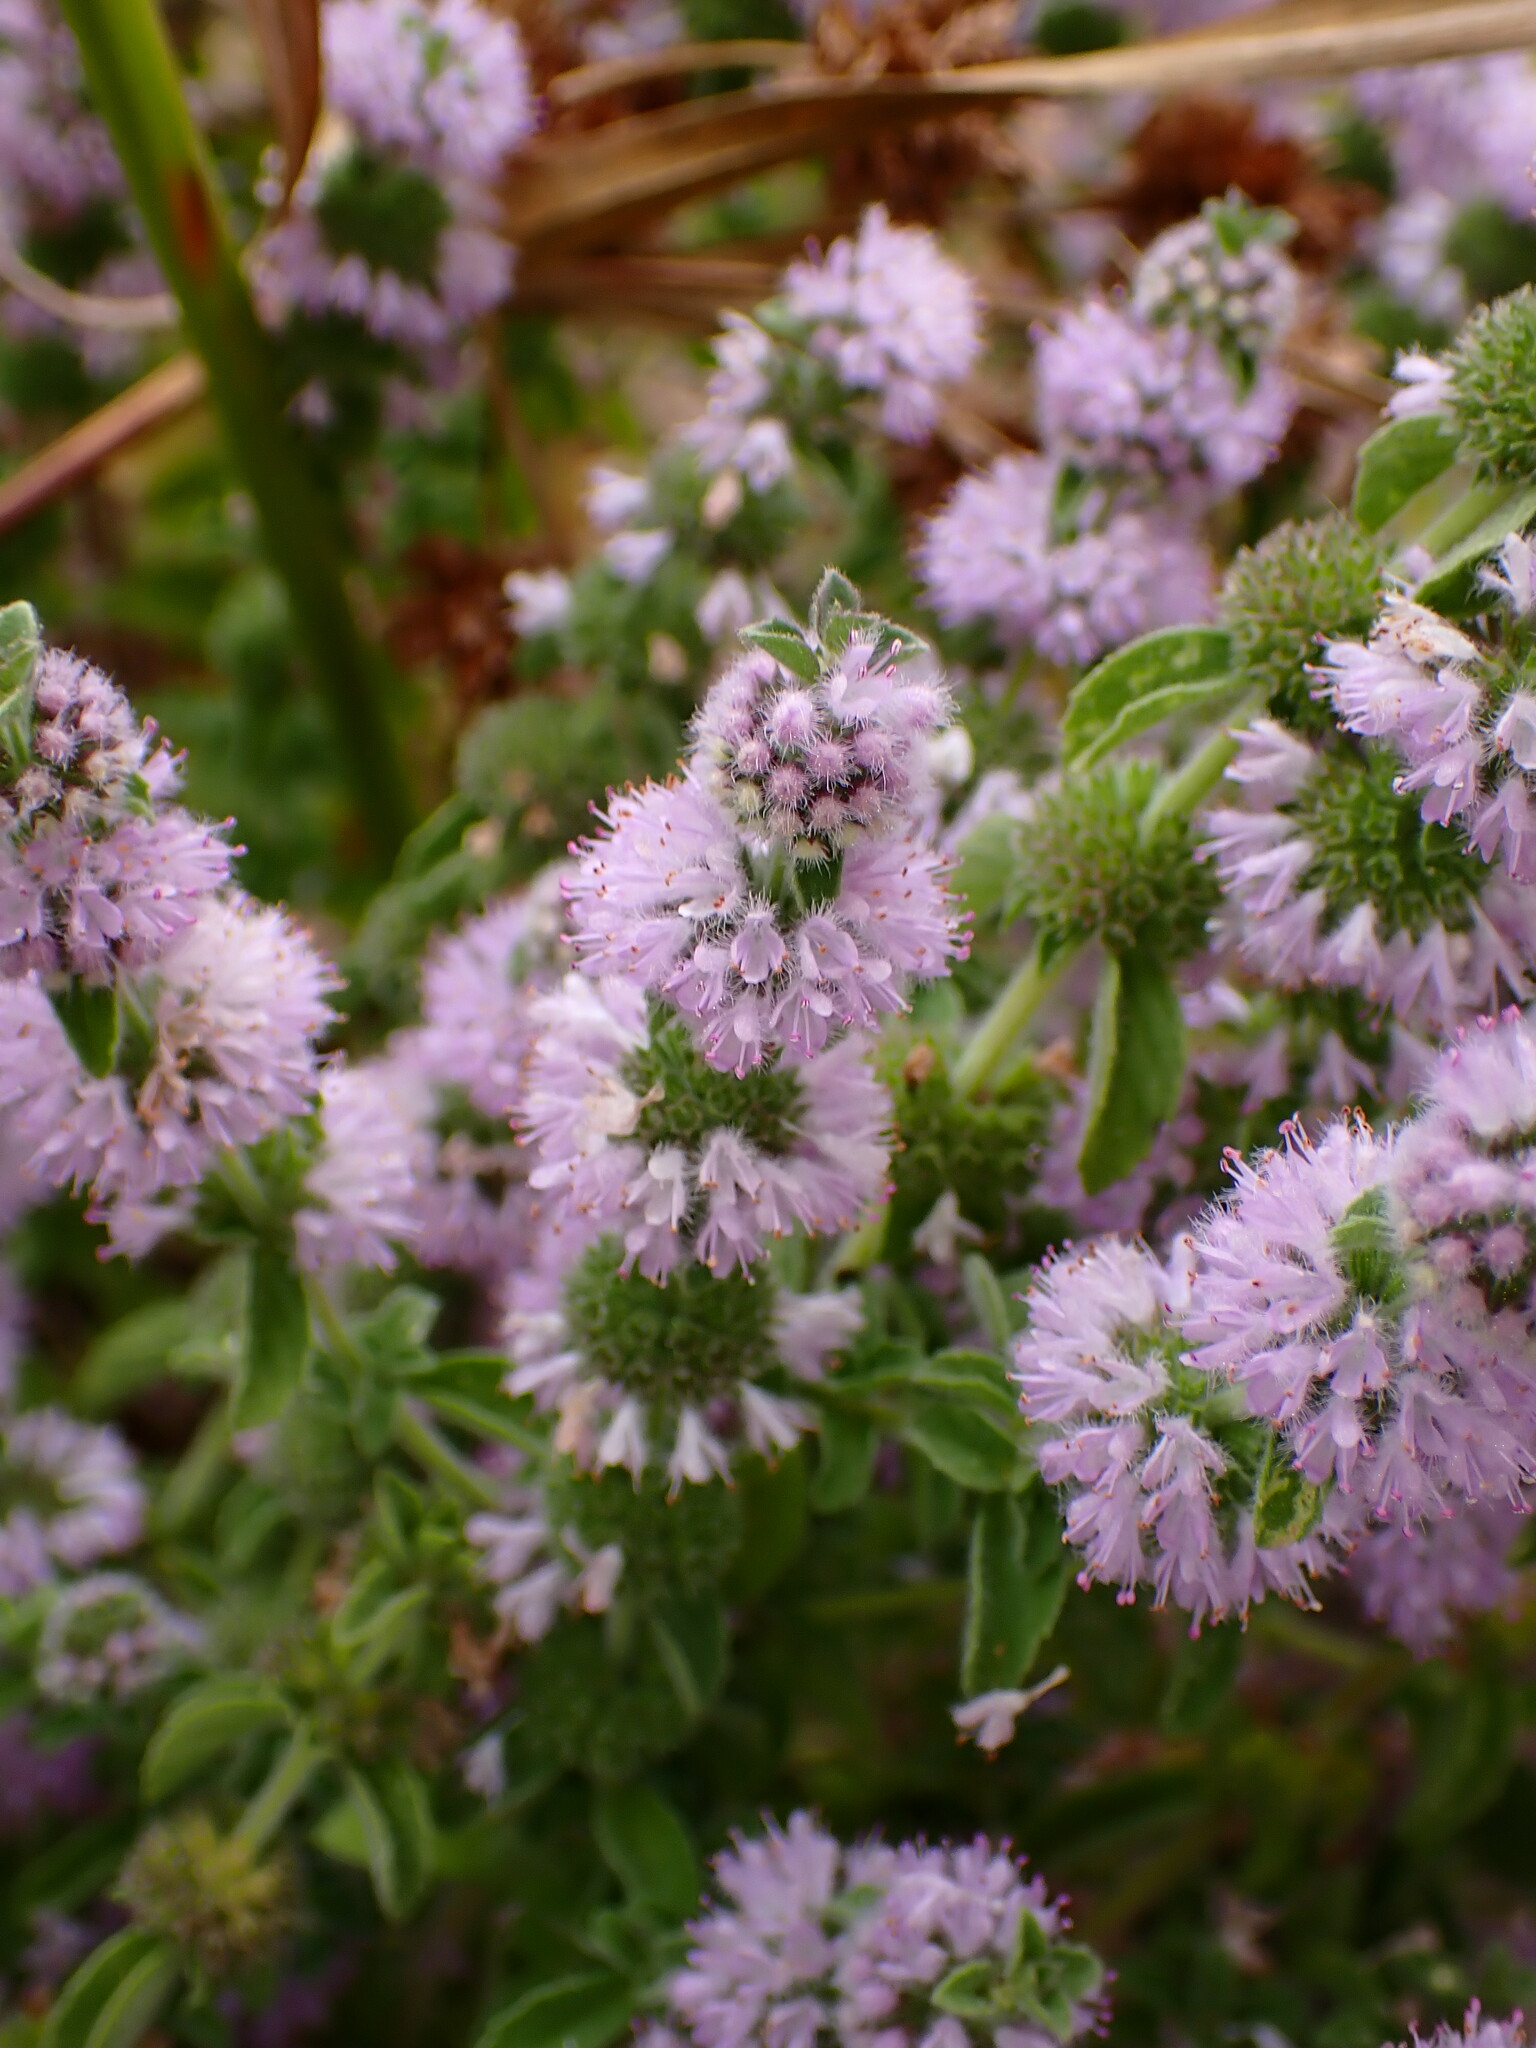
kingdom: Plantae
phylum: Tracheophyta
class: Magnoliopsida
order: Lamiales
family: Lamiaceae
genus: Mentha
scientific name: Mentha pulegium
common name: Pennyroyal
